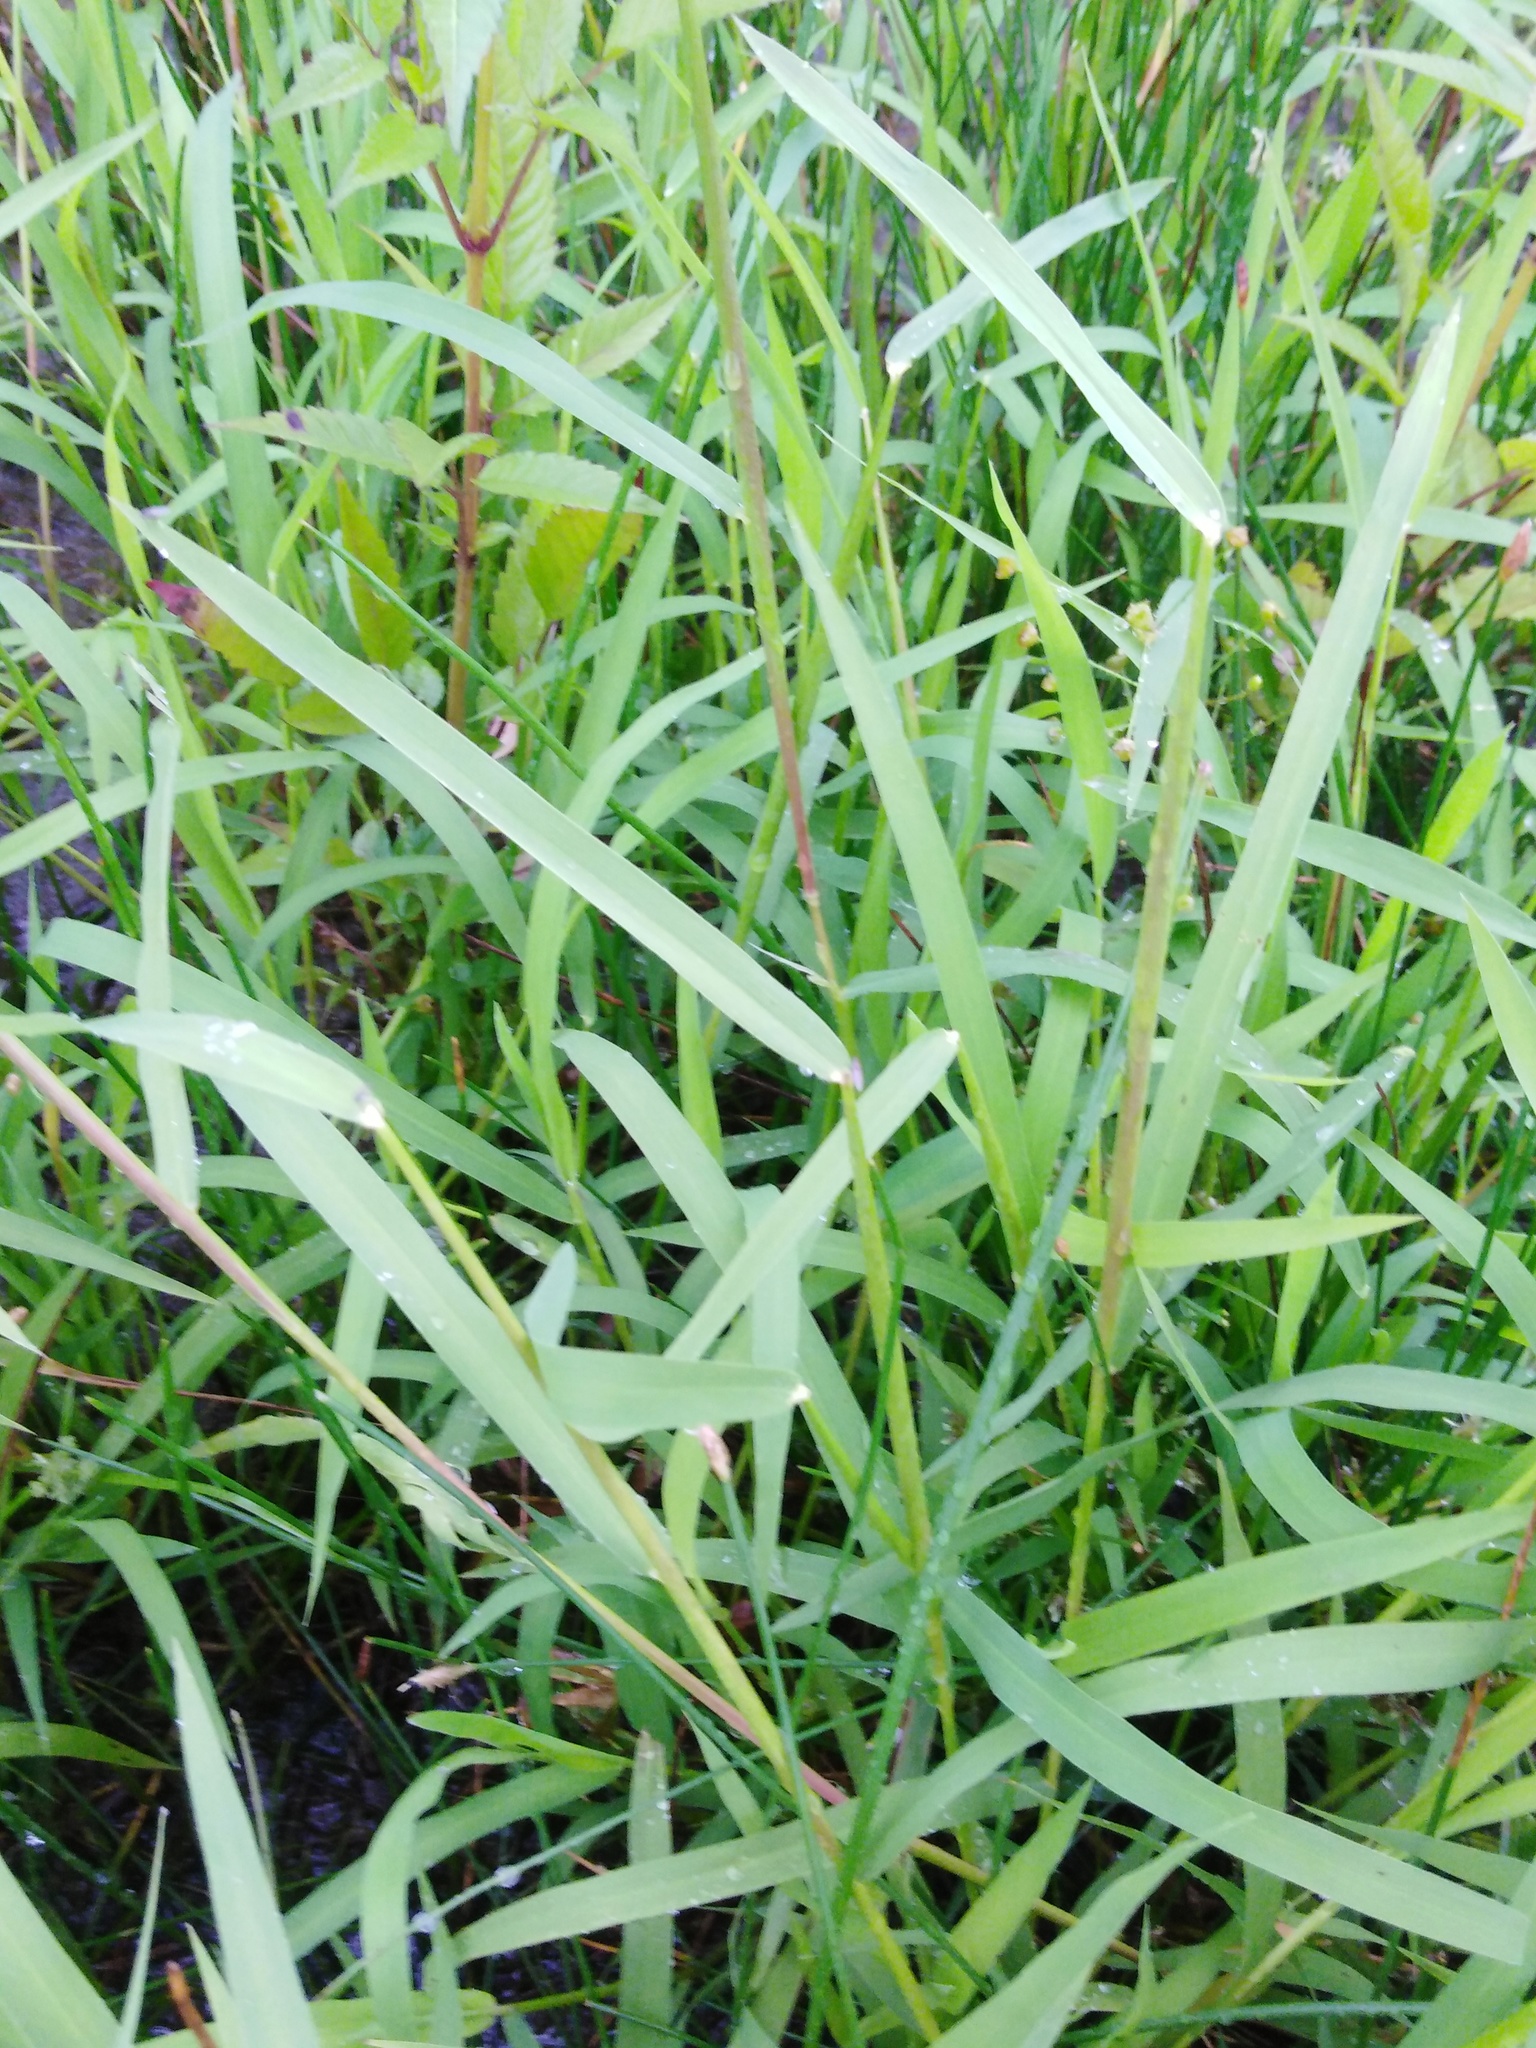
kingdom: Plantae
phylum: Tracheophyta
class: Liliopsida
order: Poales
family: Poaceae
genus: Leersia
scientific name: Leersia oryzoides
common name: Cut-grass
